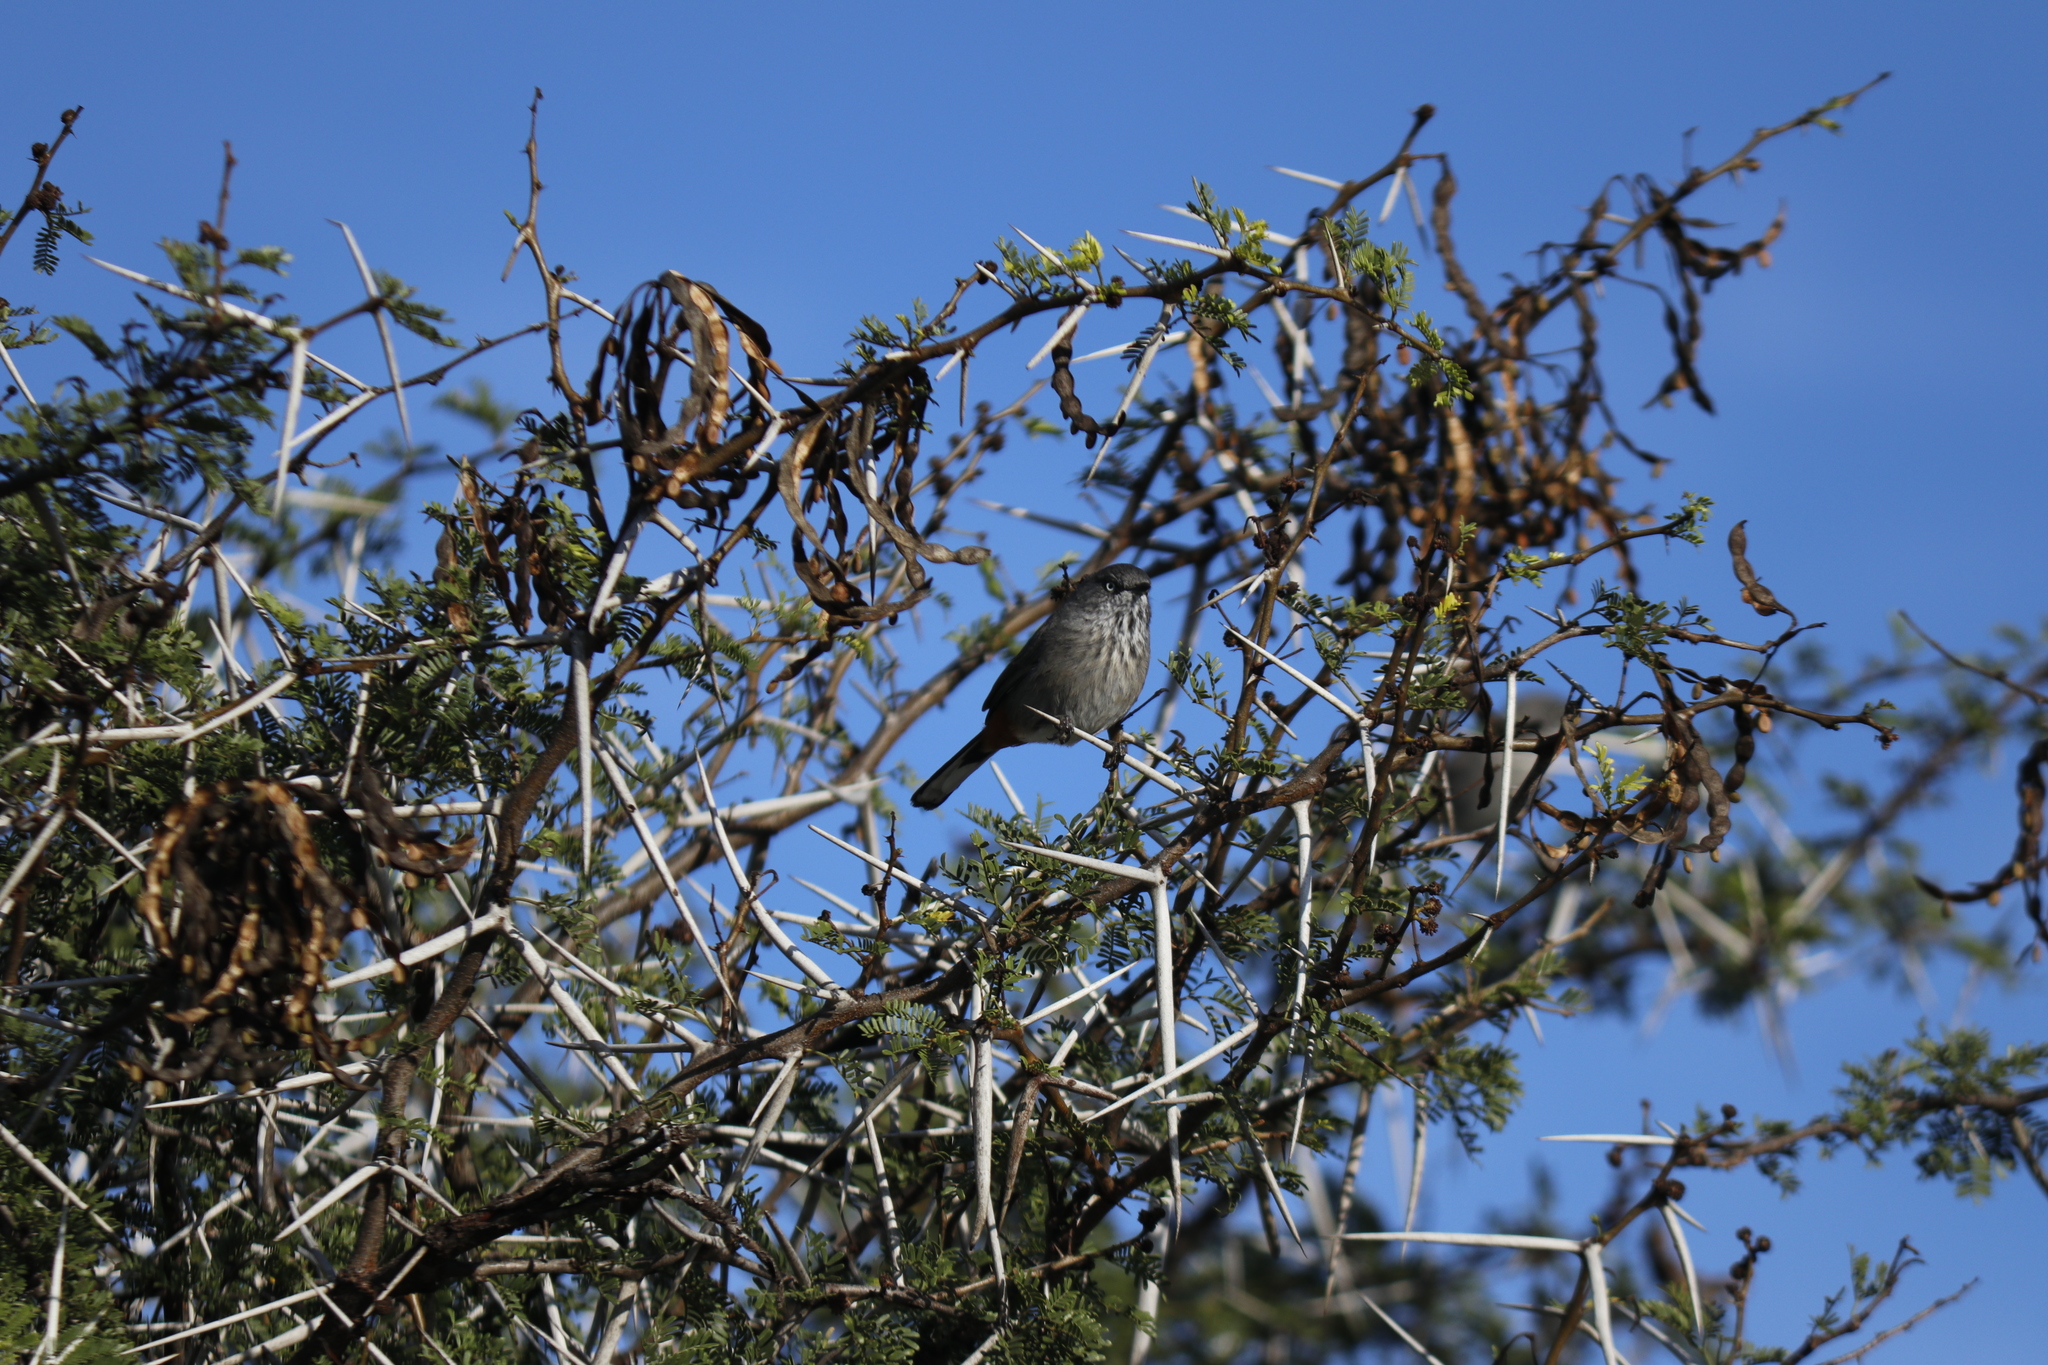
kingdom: Animalia
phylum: Chordata
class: Aves
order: Passeriformes
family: Sylviidae
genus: Curruca
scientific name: Curruca subcoerulea
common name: Chestnut-vented warbler
